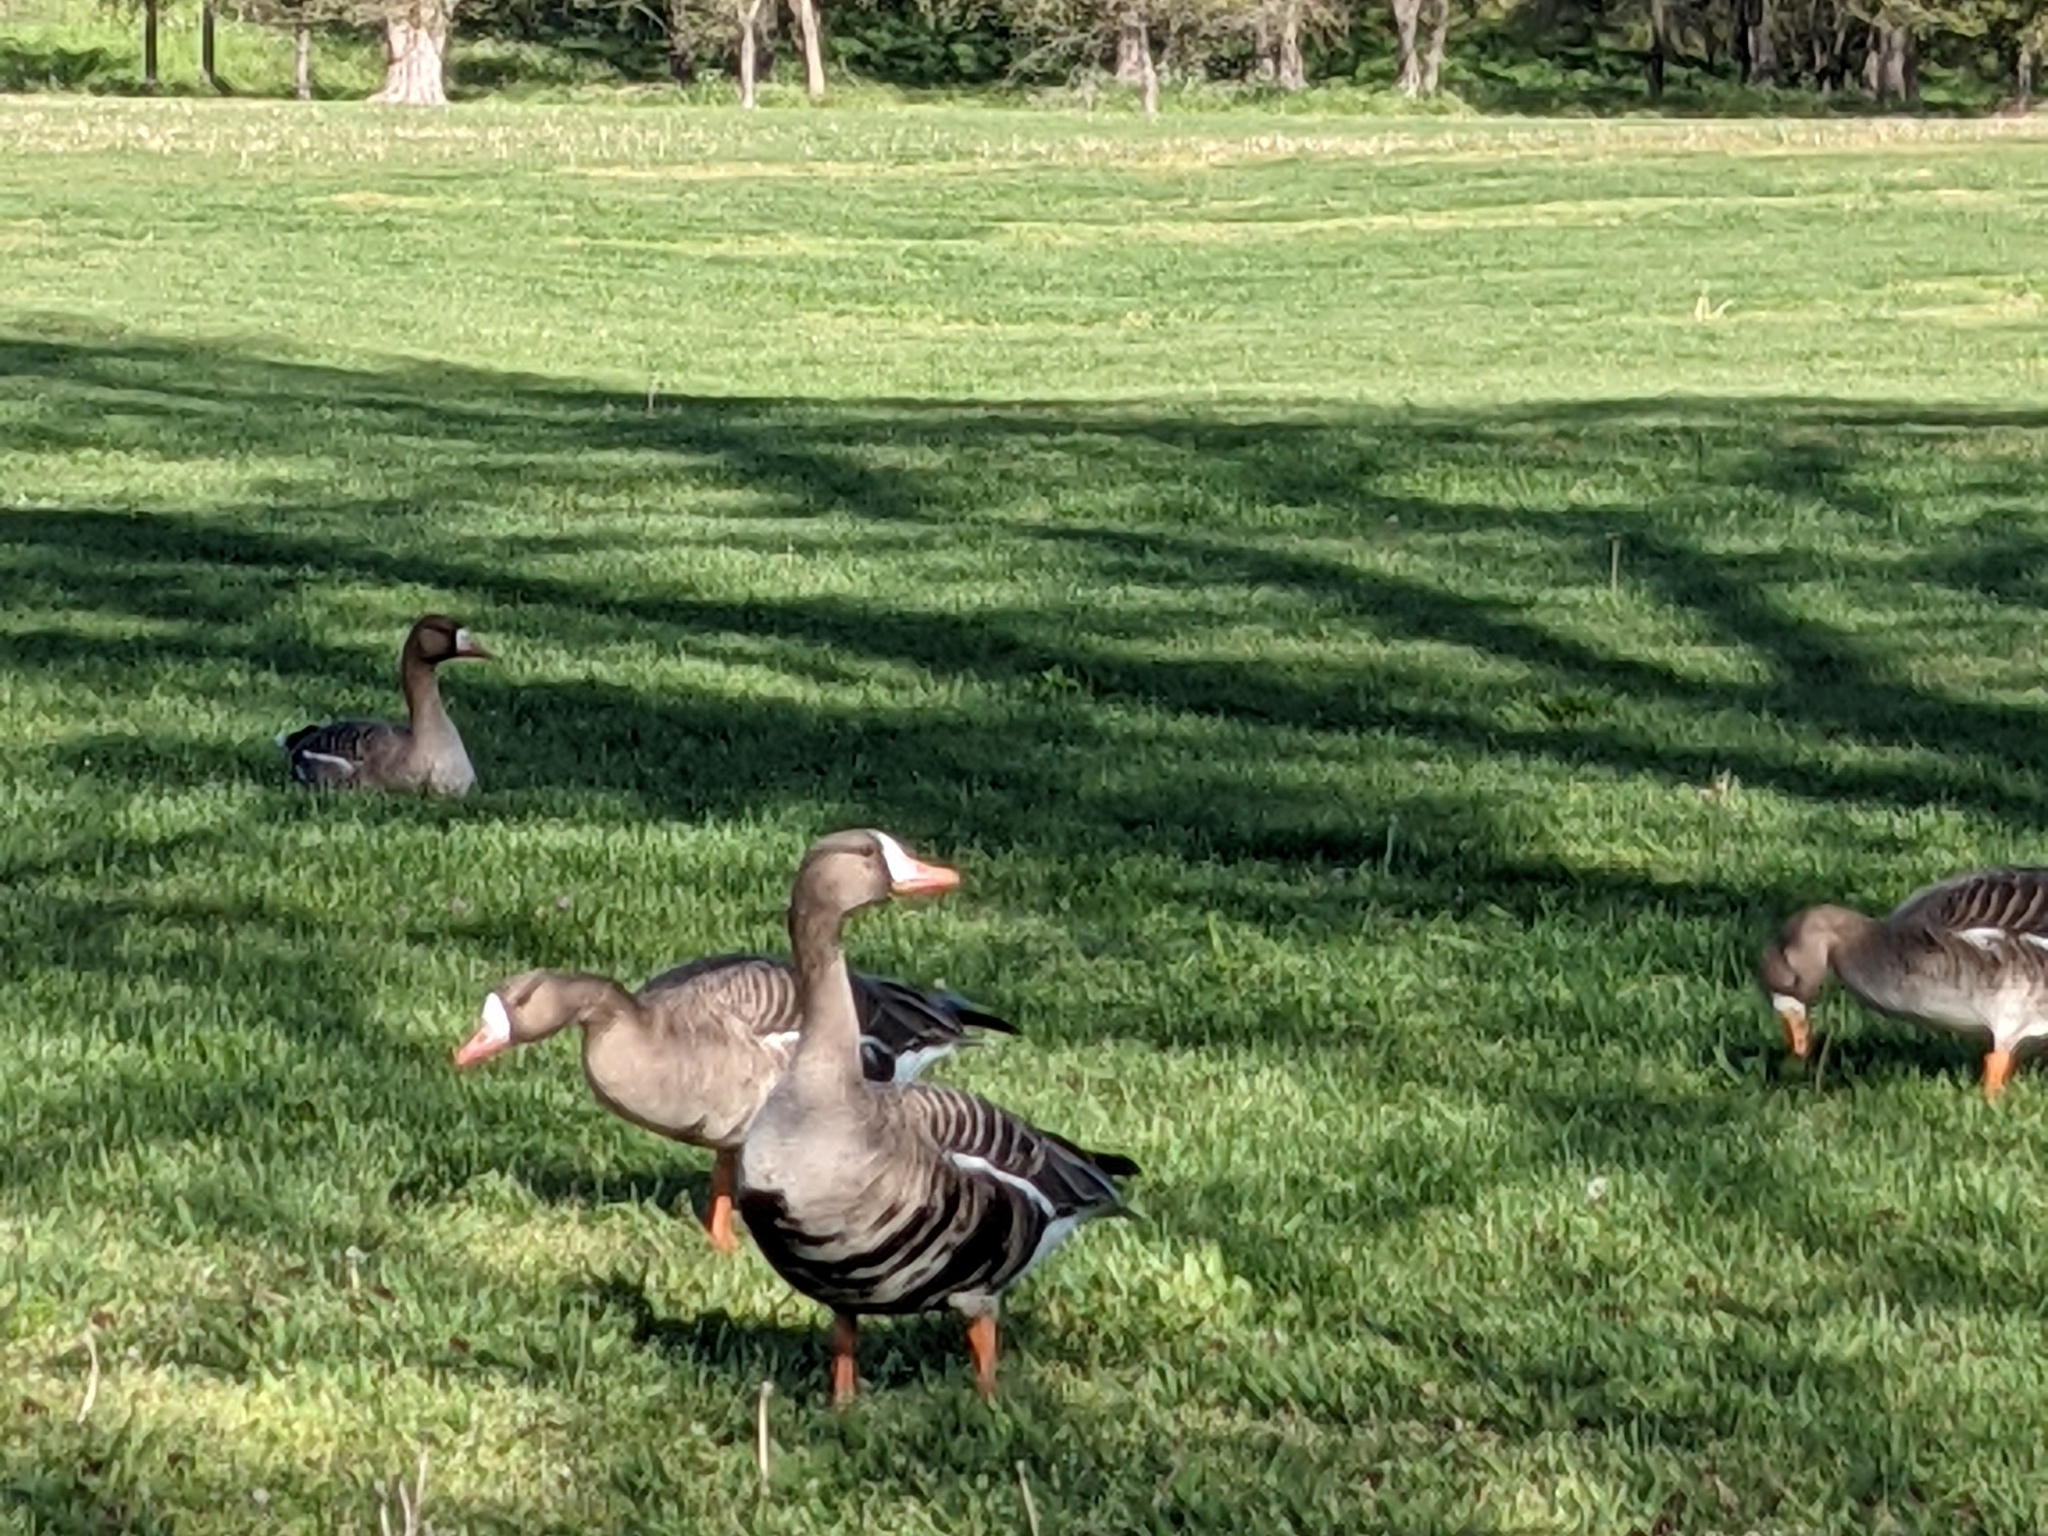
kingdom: Animalia
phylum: Chordata
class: Aves
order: Anseriformes
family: Anatidae
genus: Anser
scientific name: Anser albifrons
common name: Greater white-fronted goose
